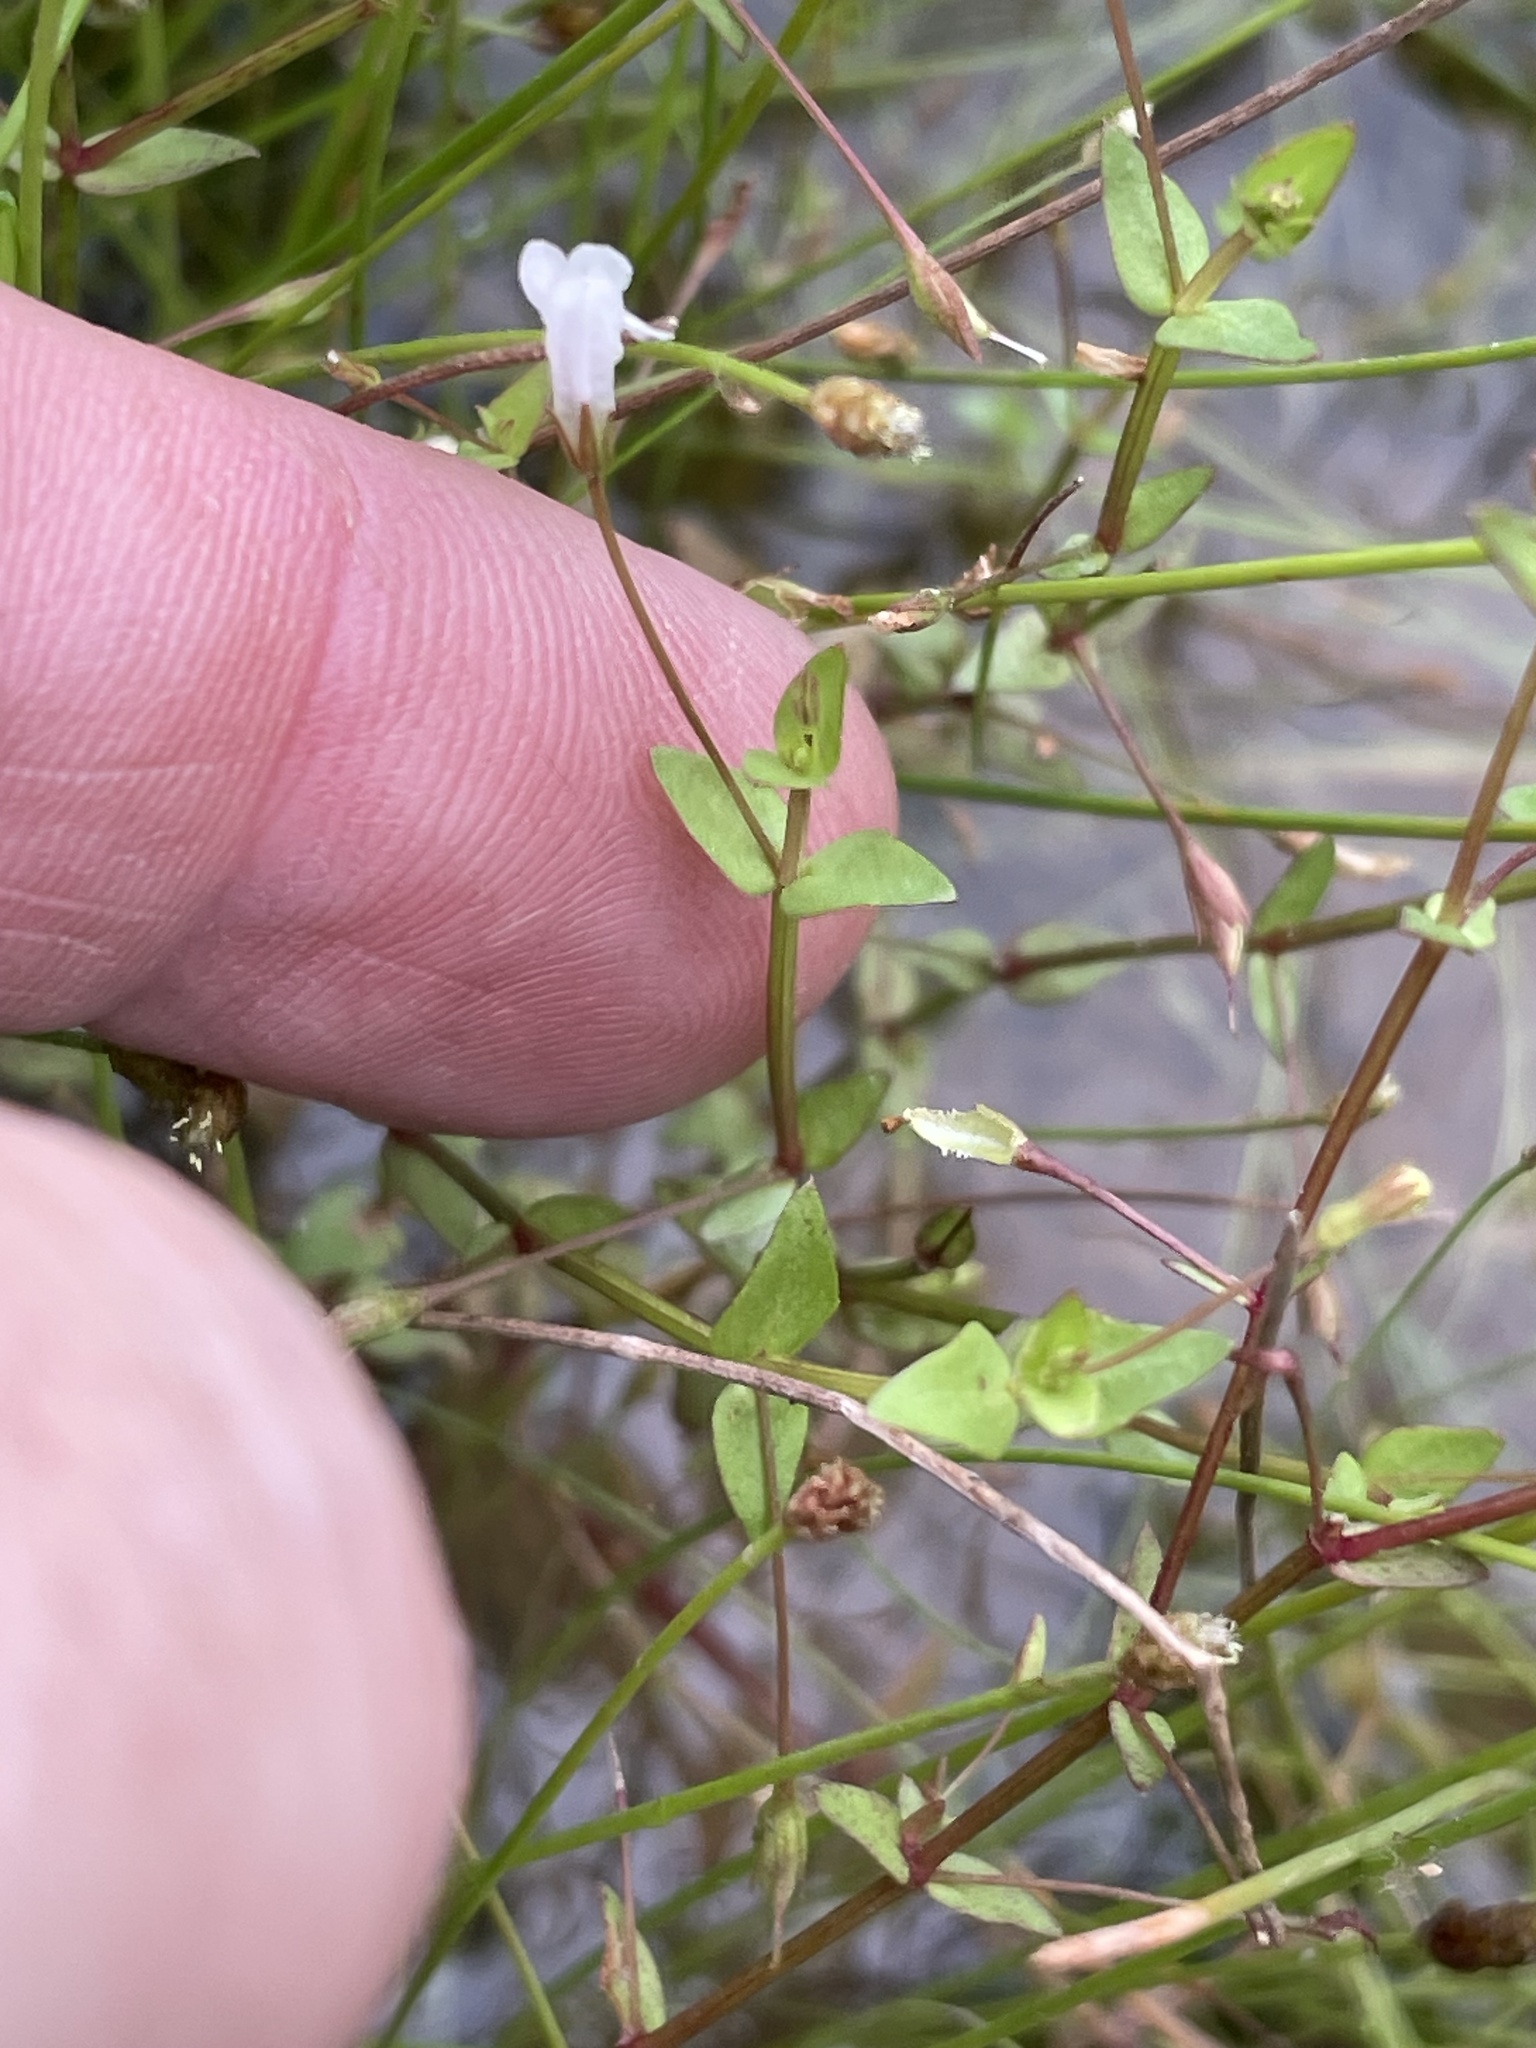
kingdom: Plantae
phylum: Tracheophyta
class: Magnoliopsida
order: Lamiales
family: Linderniaceae
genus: Lindernia
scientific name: Lindernia dubia
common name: Annual false pimpernel
